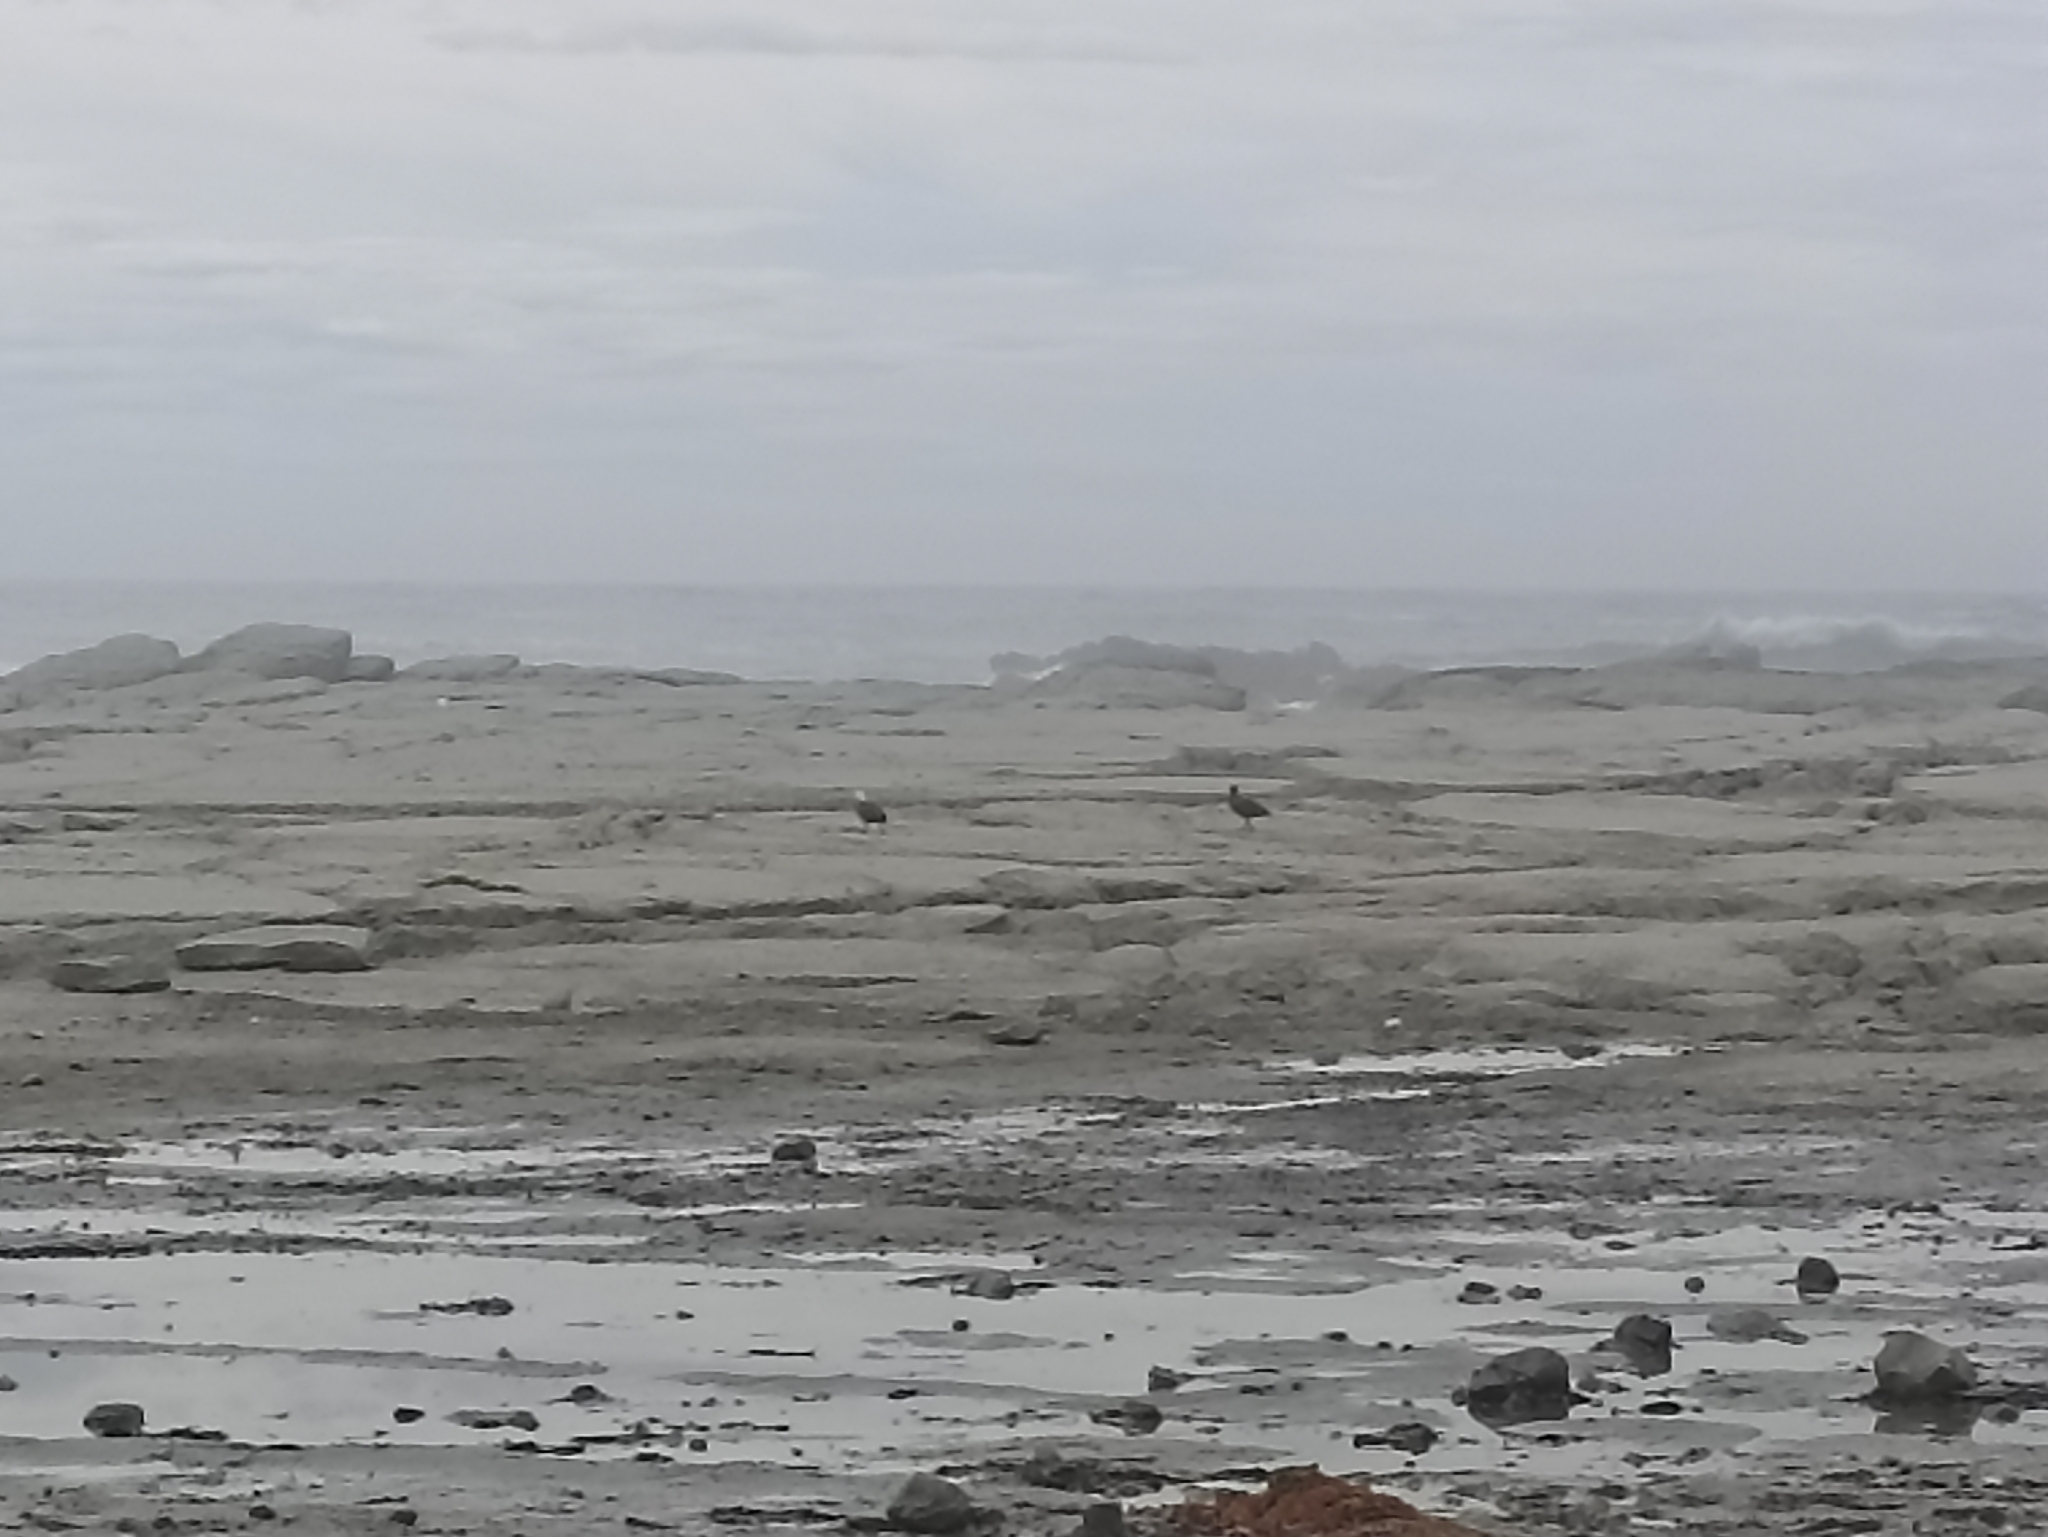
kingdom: Animalia
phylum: Chordata
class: Aves
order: Anseriformes
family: Anatidae
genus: Tadorna
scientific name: Tadorna variegata
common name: Paradise shelduck
